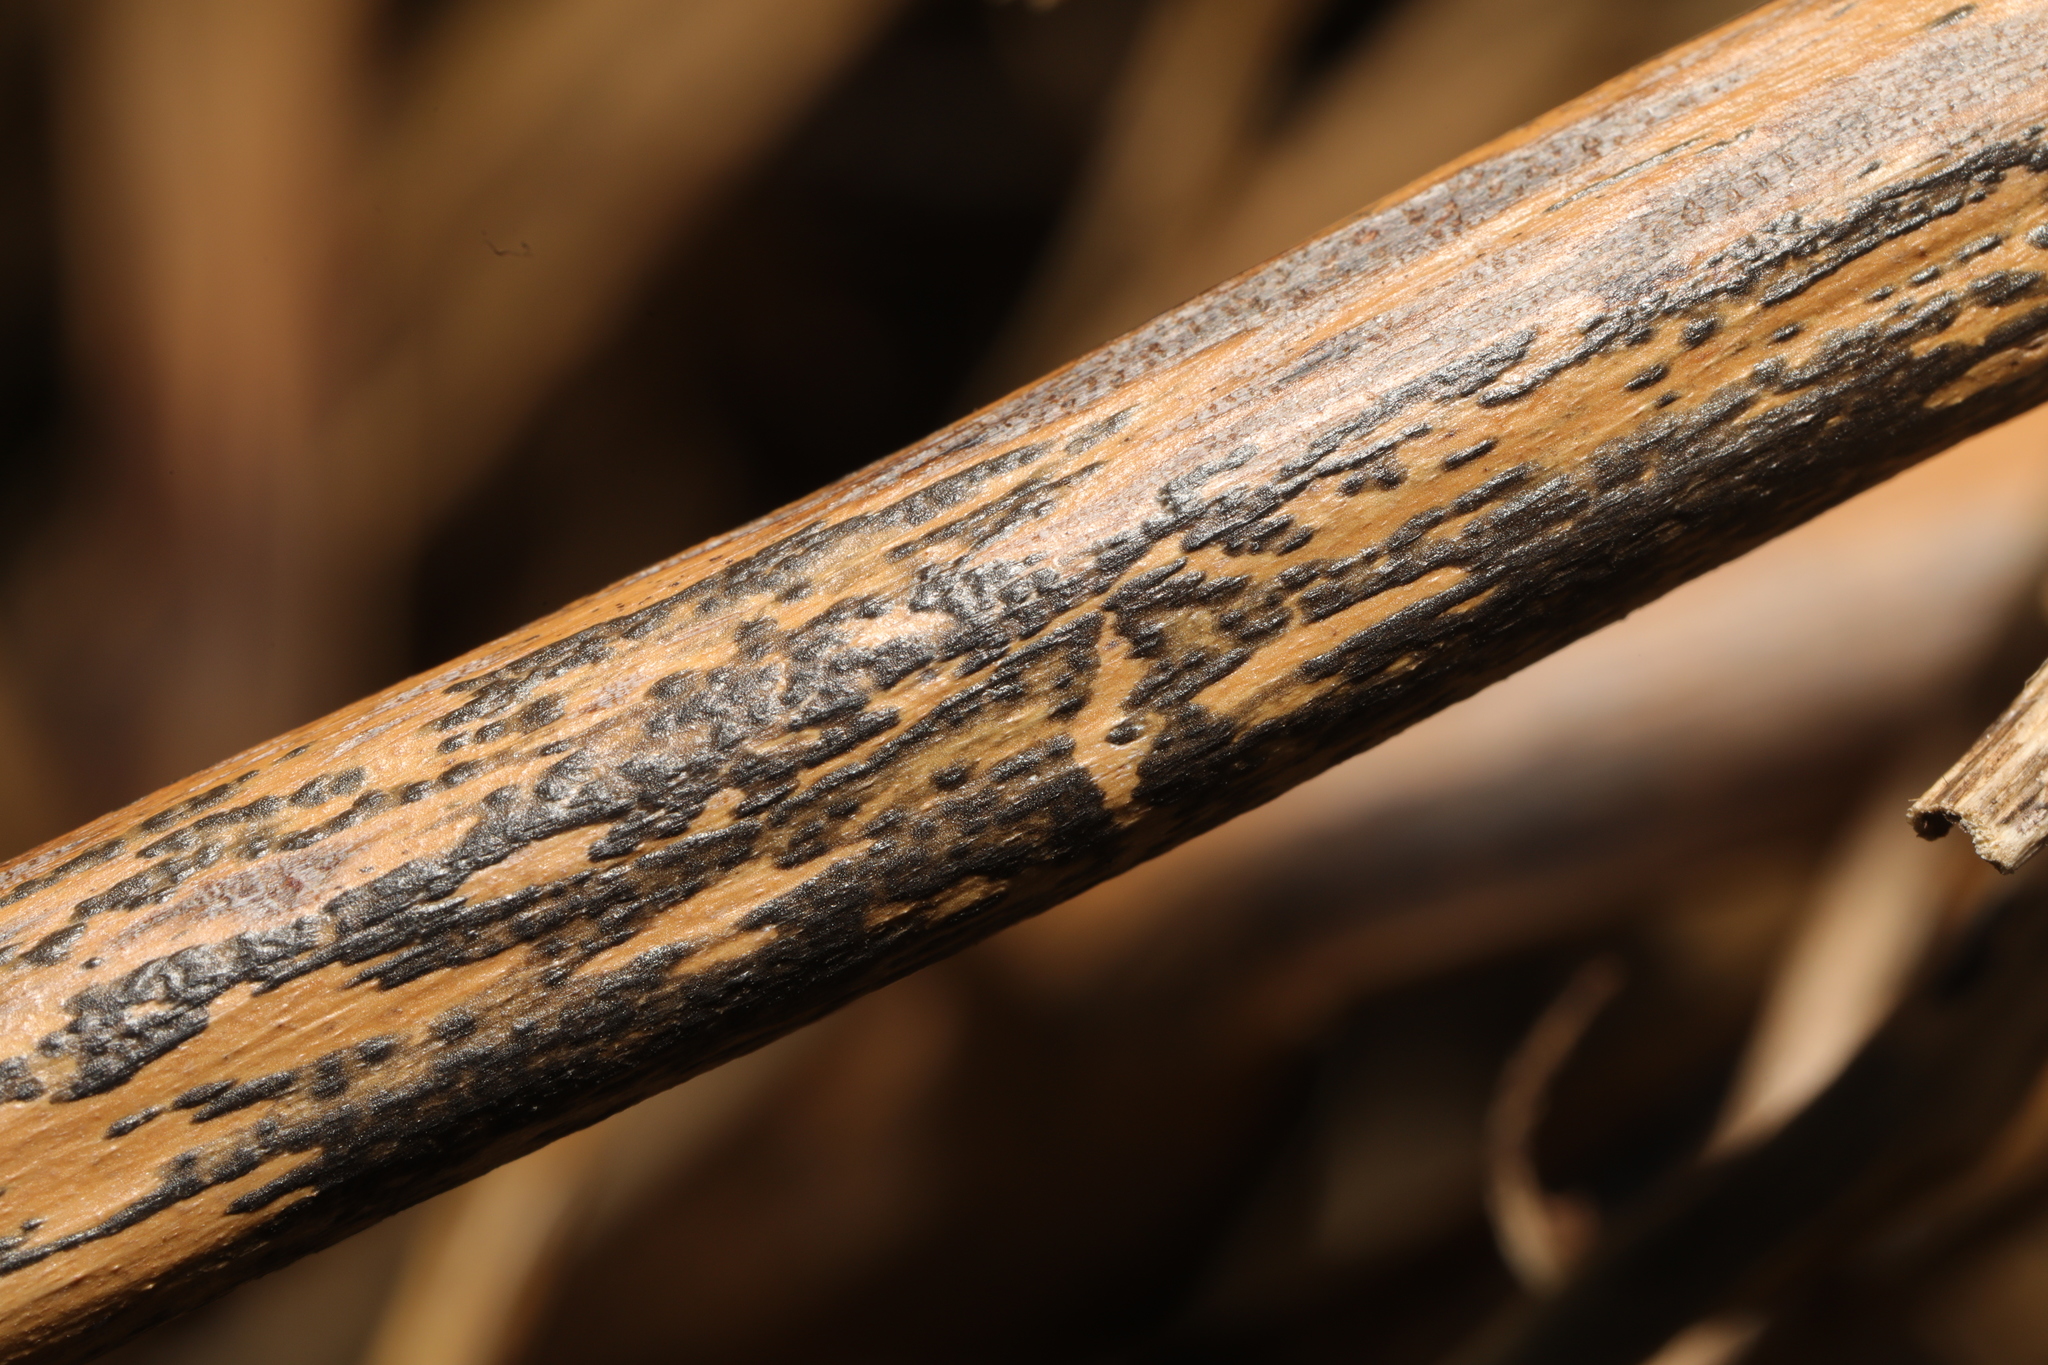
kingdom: Fungi
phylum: Ascomycota
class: Dothideomycetes
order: Pleosporales
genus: Rhopographus
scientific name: Rhopographus filicinus
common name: Bracken map
